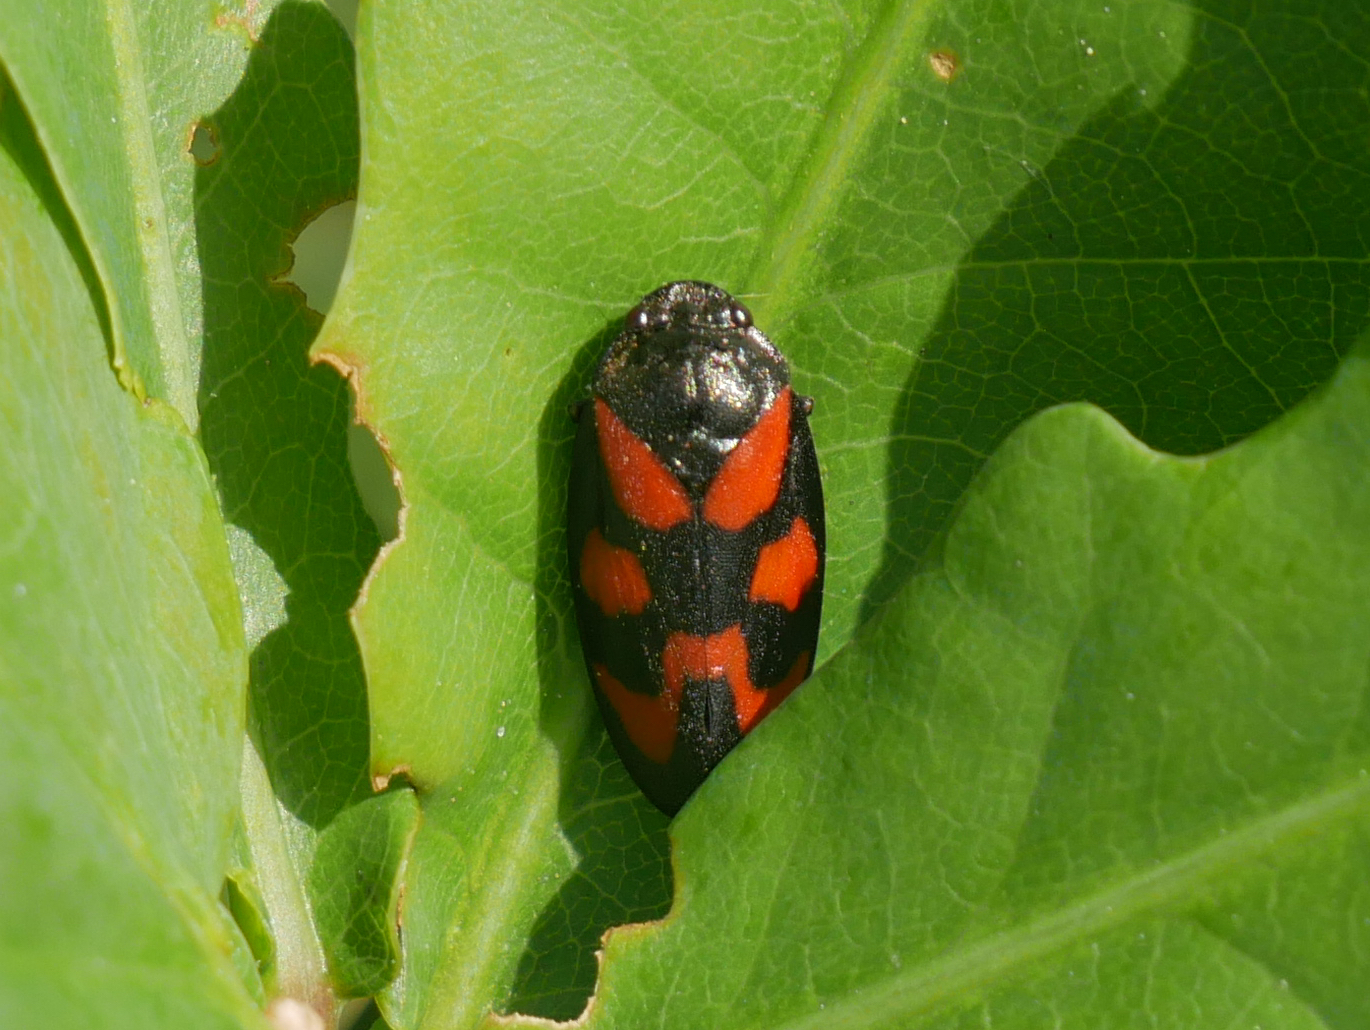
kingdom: Animalia
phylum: Arthropoda
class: Insecta
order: Hemiptera
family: Cercopidae
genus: Cercopis
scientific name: Cercopis vulnerata
